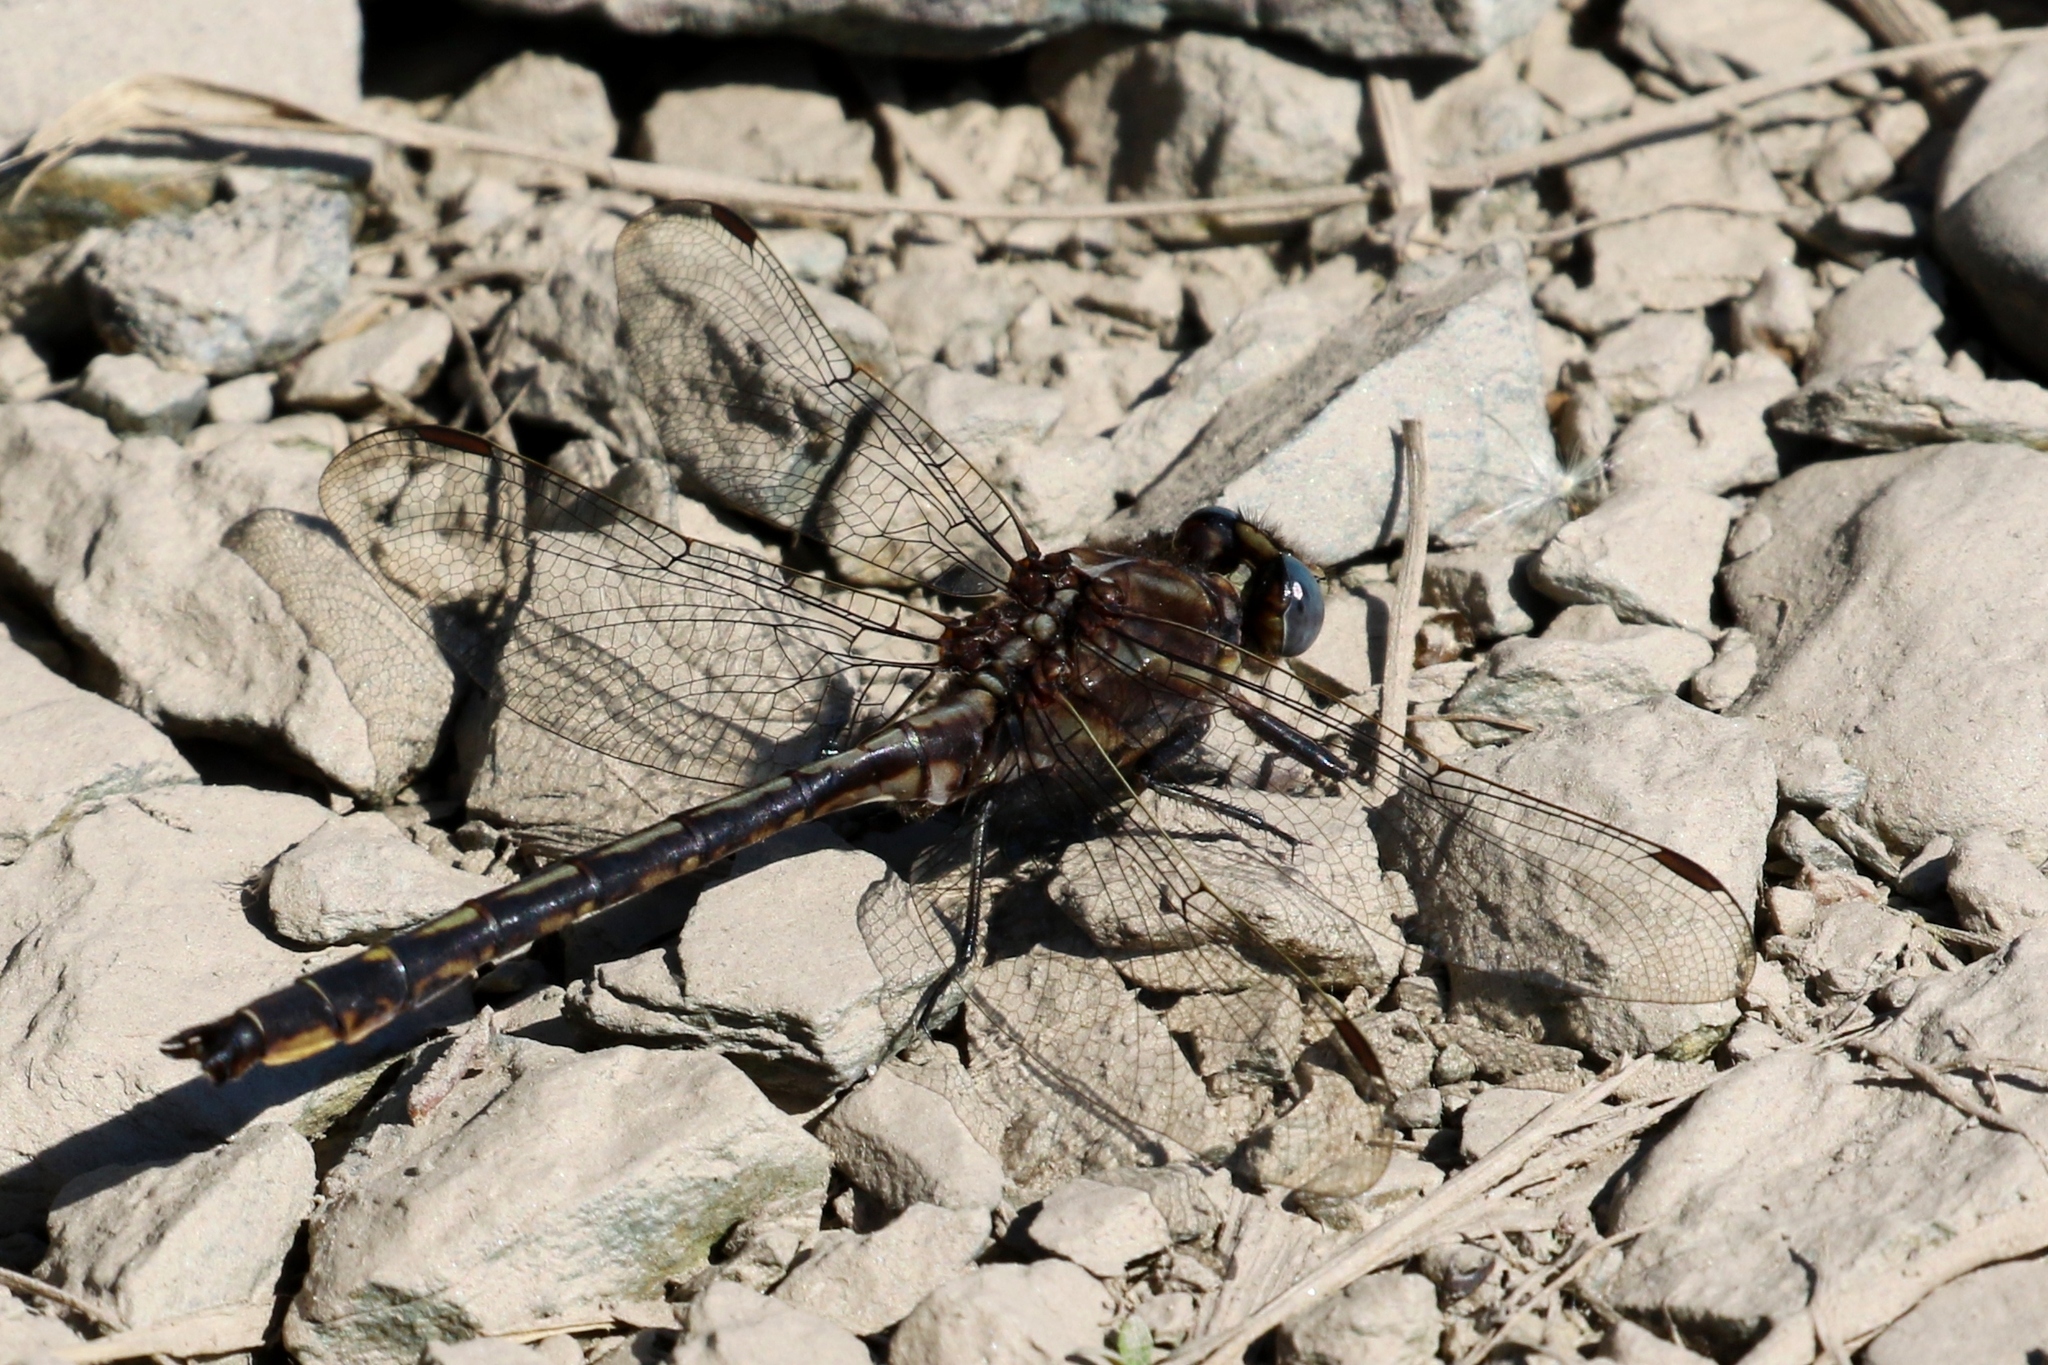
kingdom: Animalia
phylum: Arthropoda
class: Insecta
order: Odonata
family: Gomphidae
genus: Phanogomphus
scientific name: Phanogomphus spicatus
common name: Dusky clubtail
